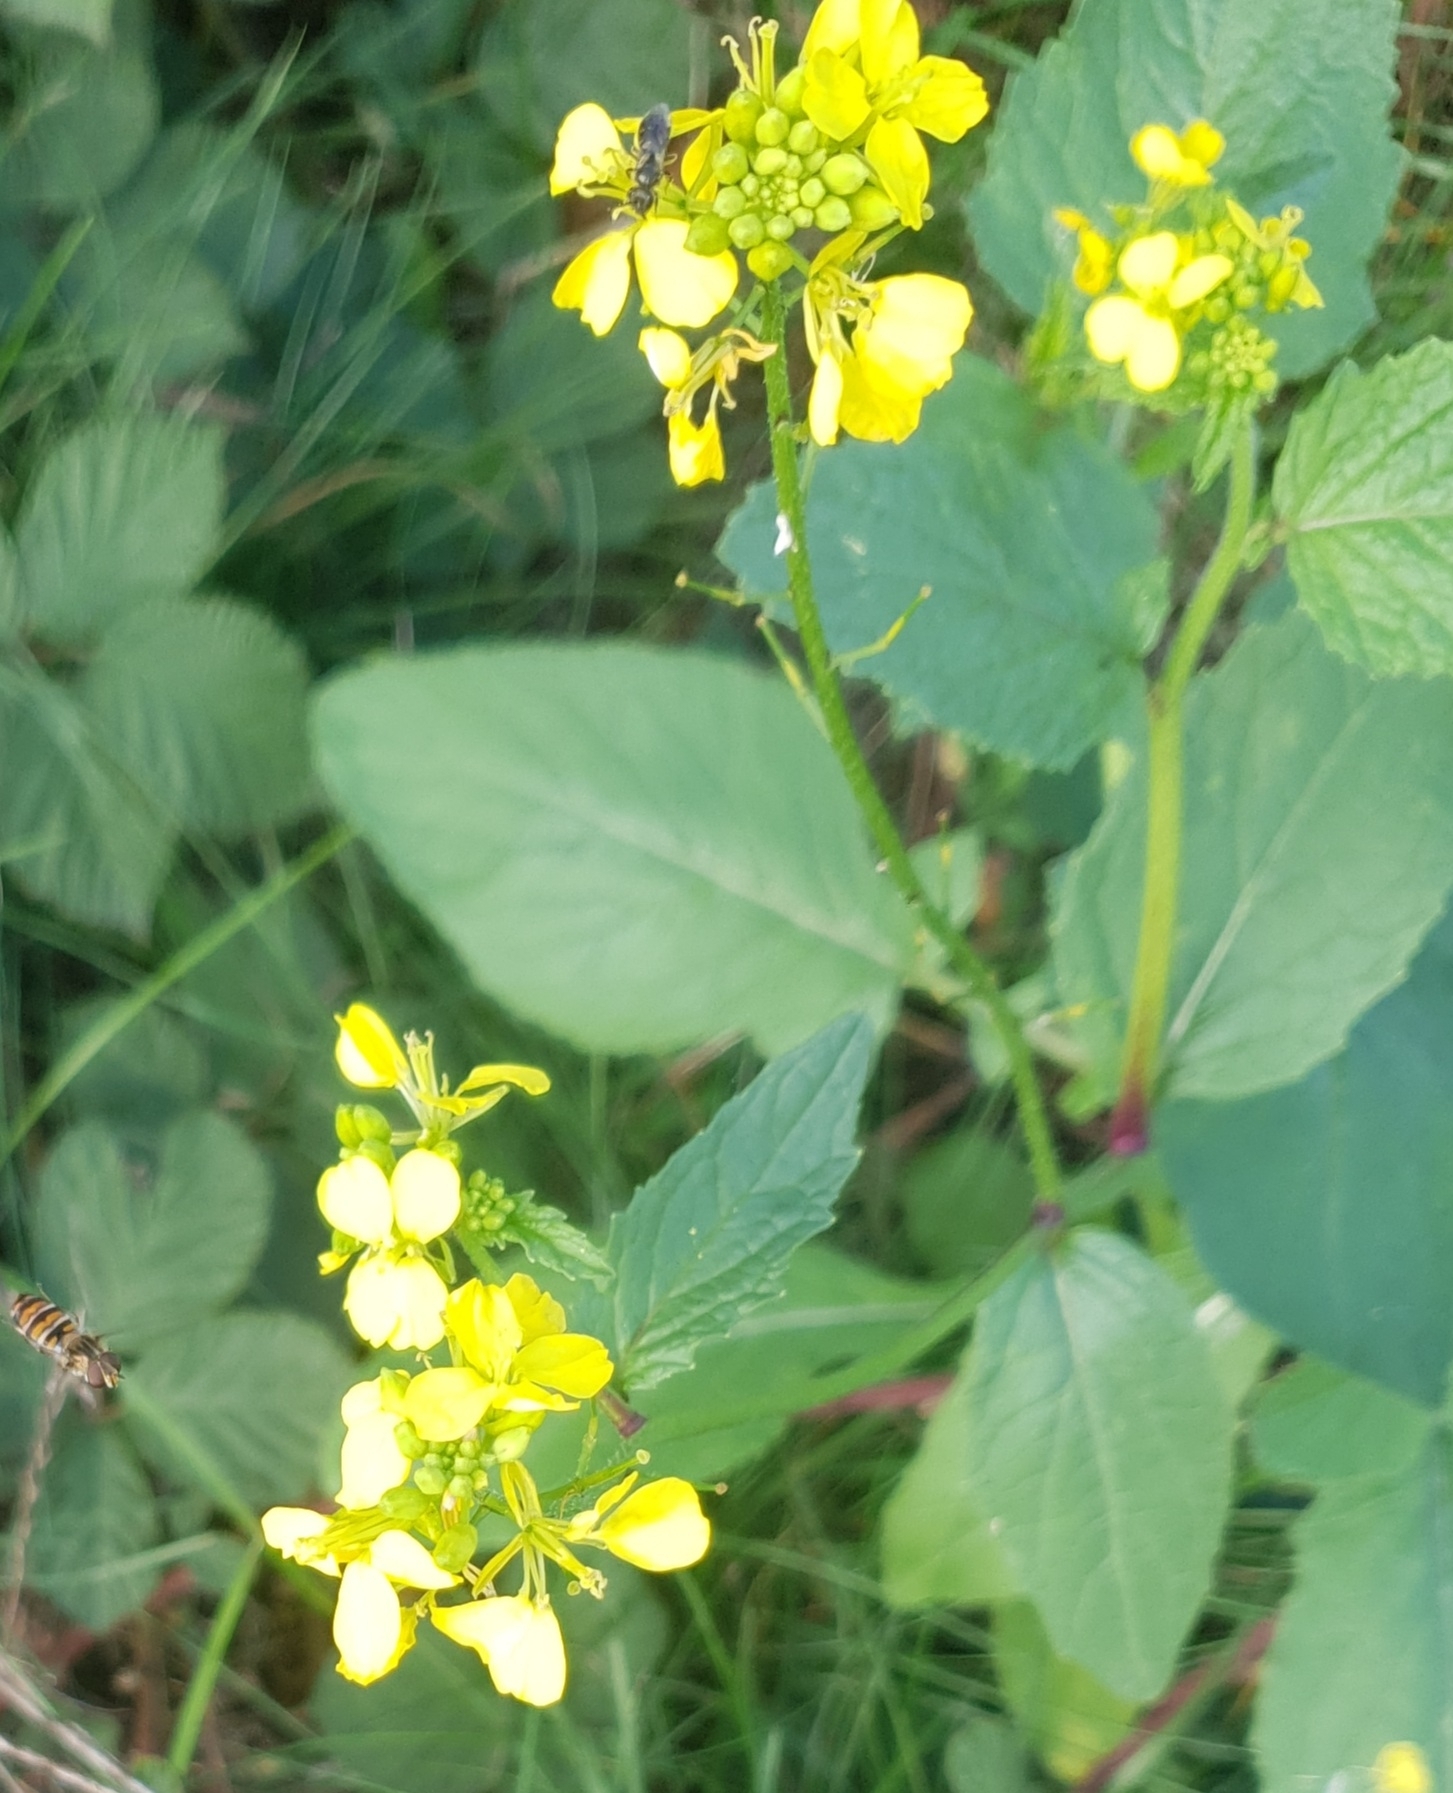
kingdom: Plantae
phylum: Tracheophyta
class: Magnoliopsida
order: Brassicales
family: Brassicaceae
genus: Sinapis
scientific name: Sinapis arvensis
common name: Charlock
